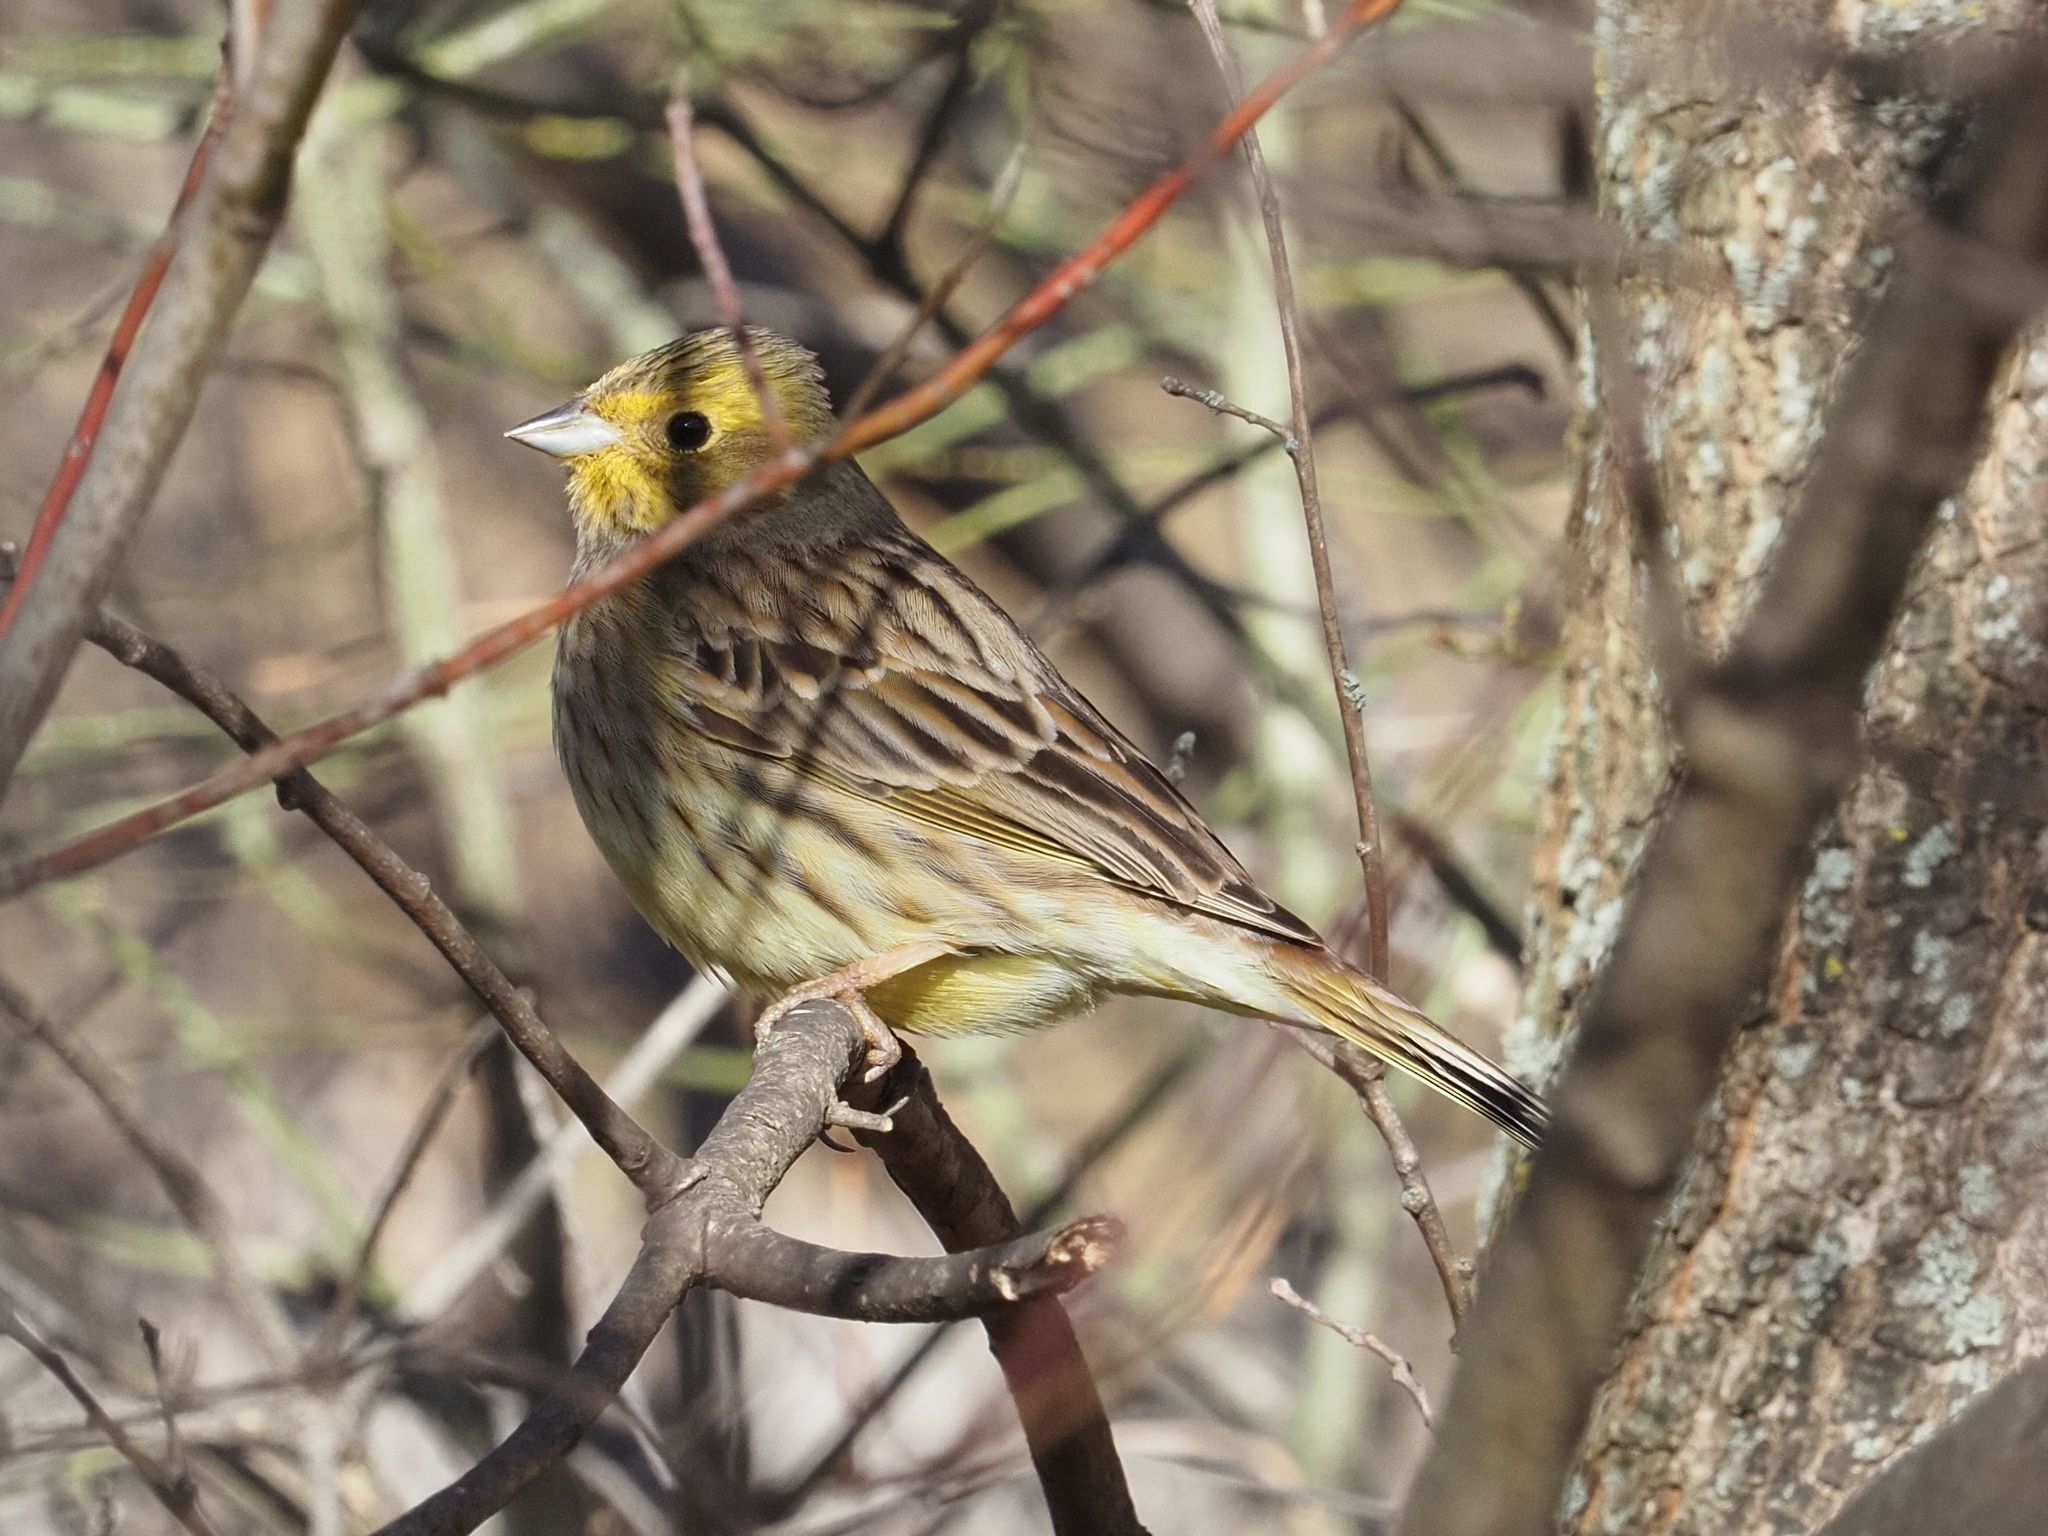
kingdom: Animalia
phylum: Chordata
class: Aves
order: Passeriformes
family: Emberizidae
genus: Emberiza
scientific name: Emberiza citrinella
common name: Yellowhammer
